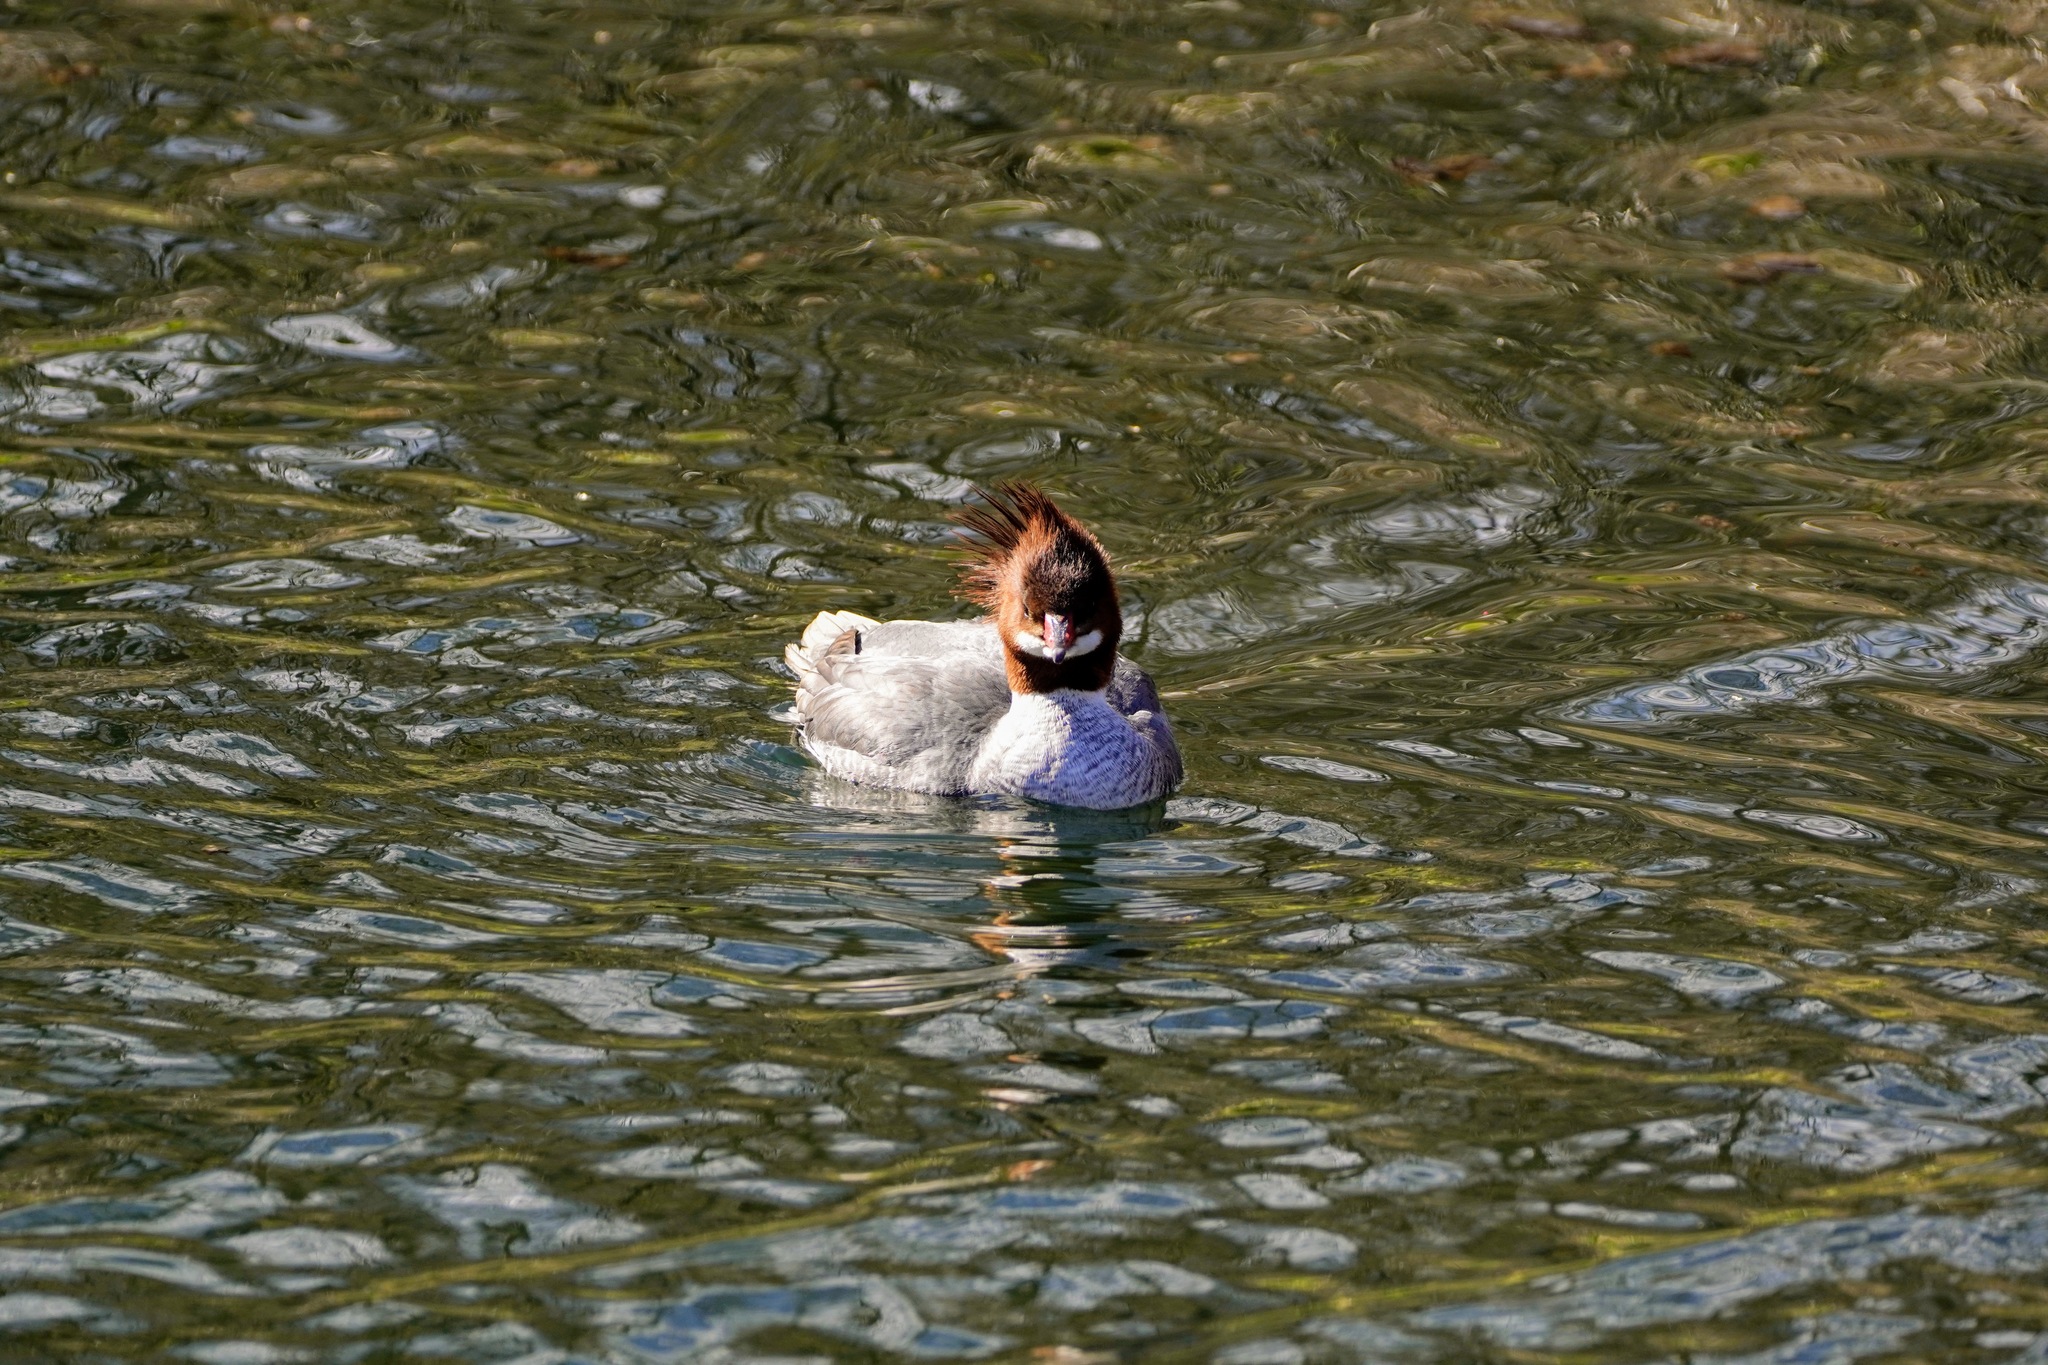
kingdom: Animalia
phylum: Chordata
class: Aves
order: Anseriformes
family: Anatidae
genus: Mergus
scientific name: Mergus merganser
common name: Common merganser
